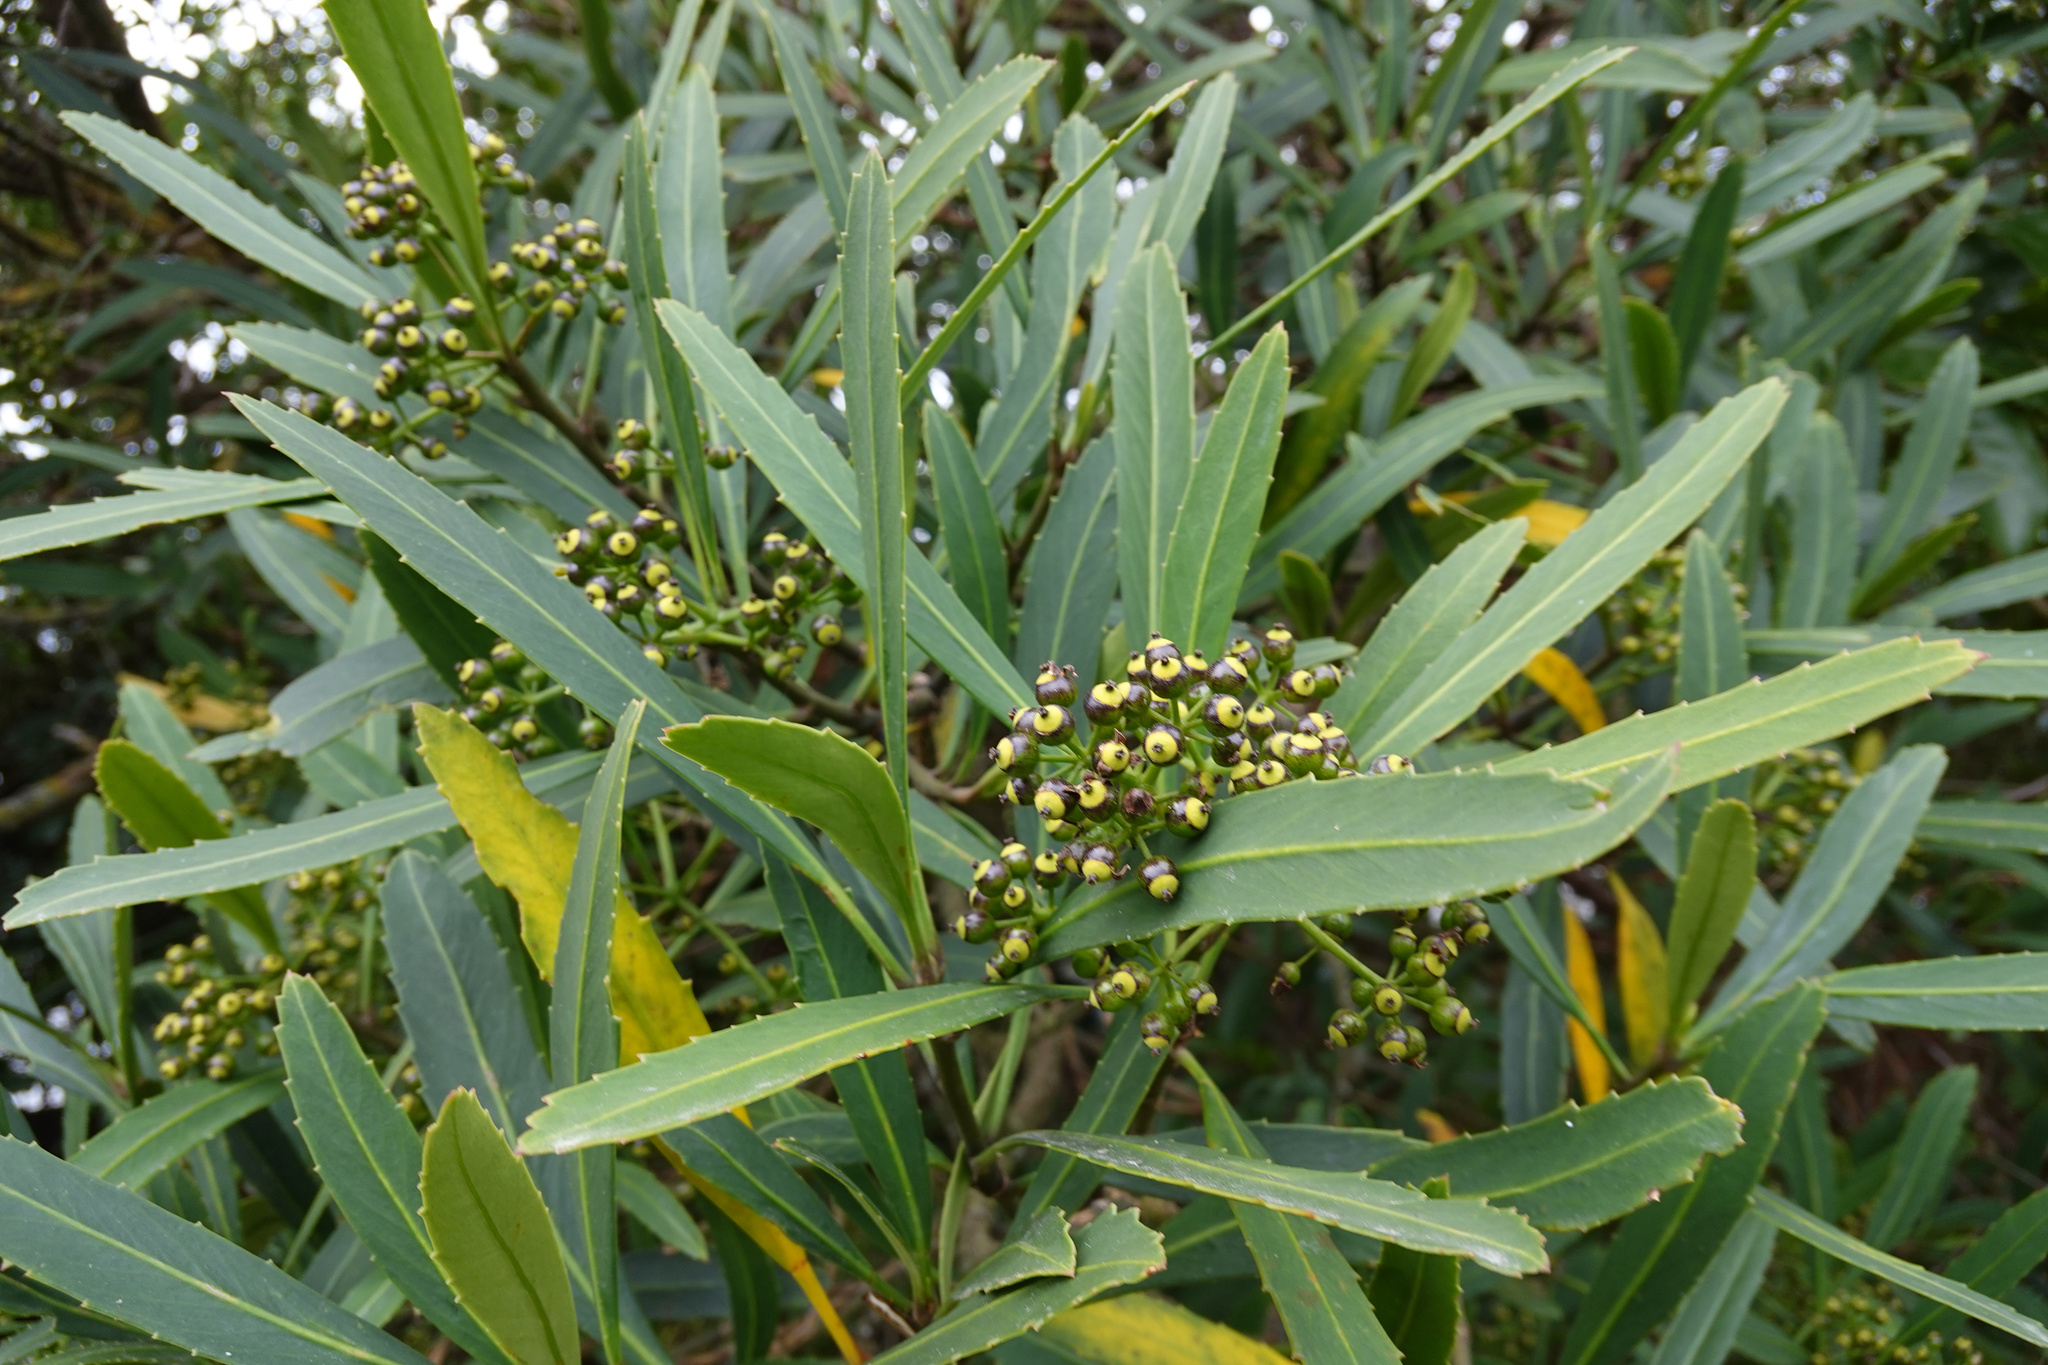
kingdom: Plantae
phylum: Tracheophyta
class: Magnoliopsida
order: Apiales
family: Araliaceae
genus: Pseudopanax
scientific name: Pseudopanax crassifolius
